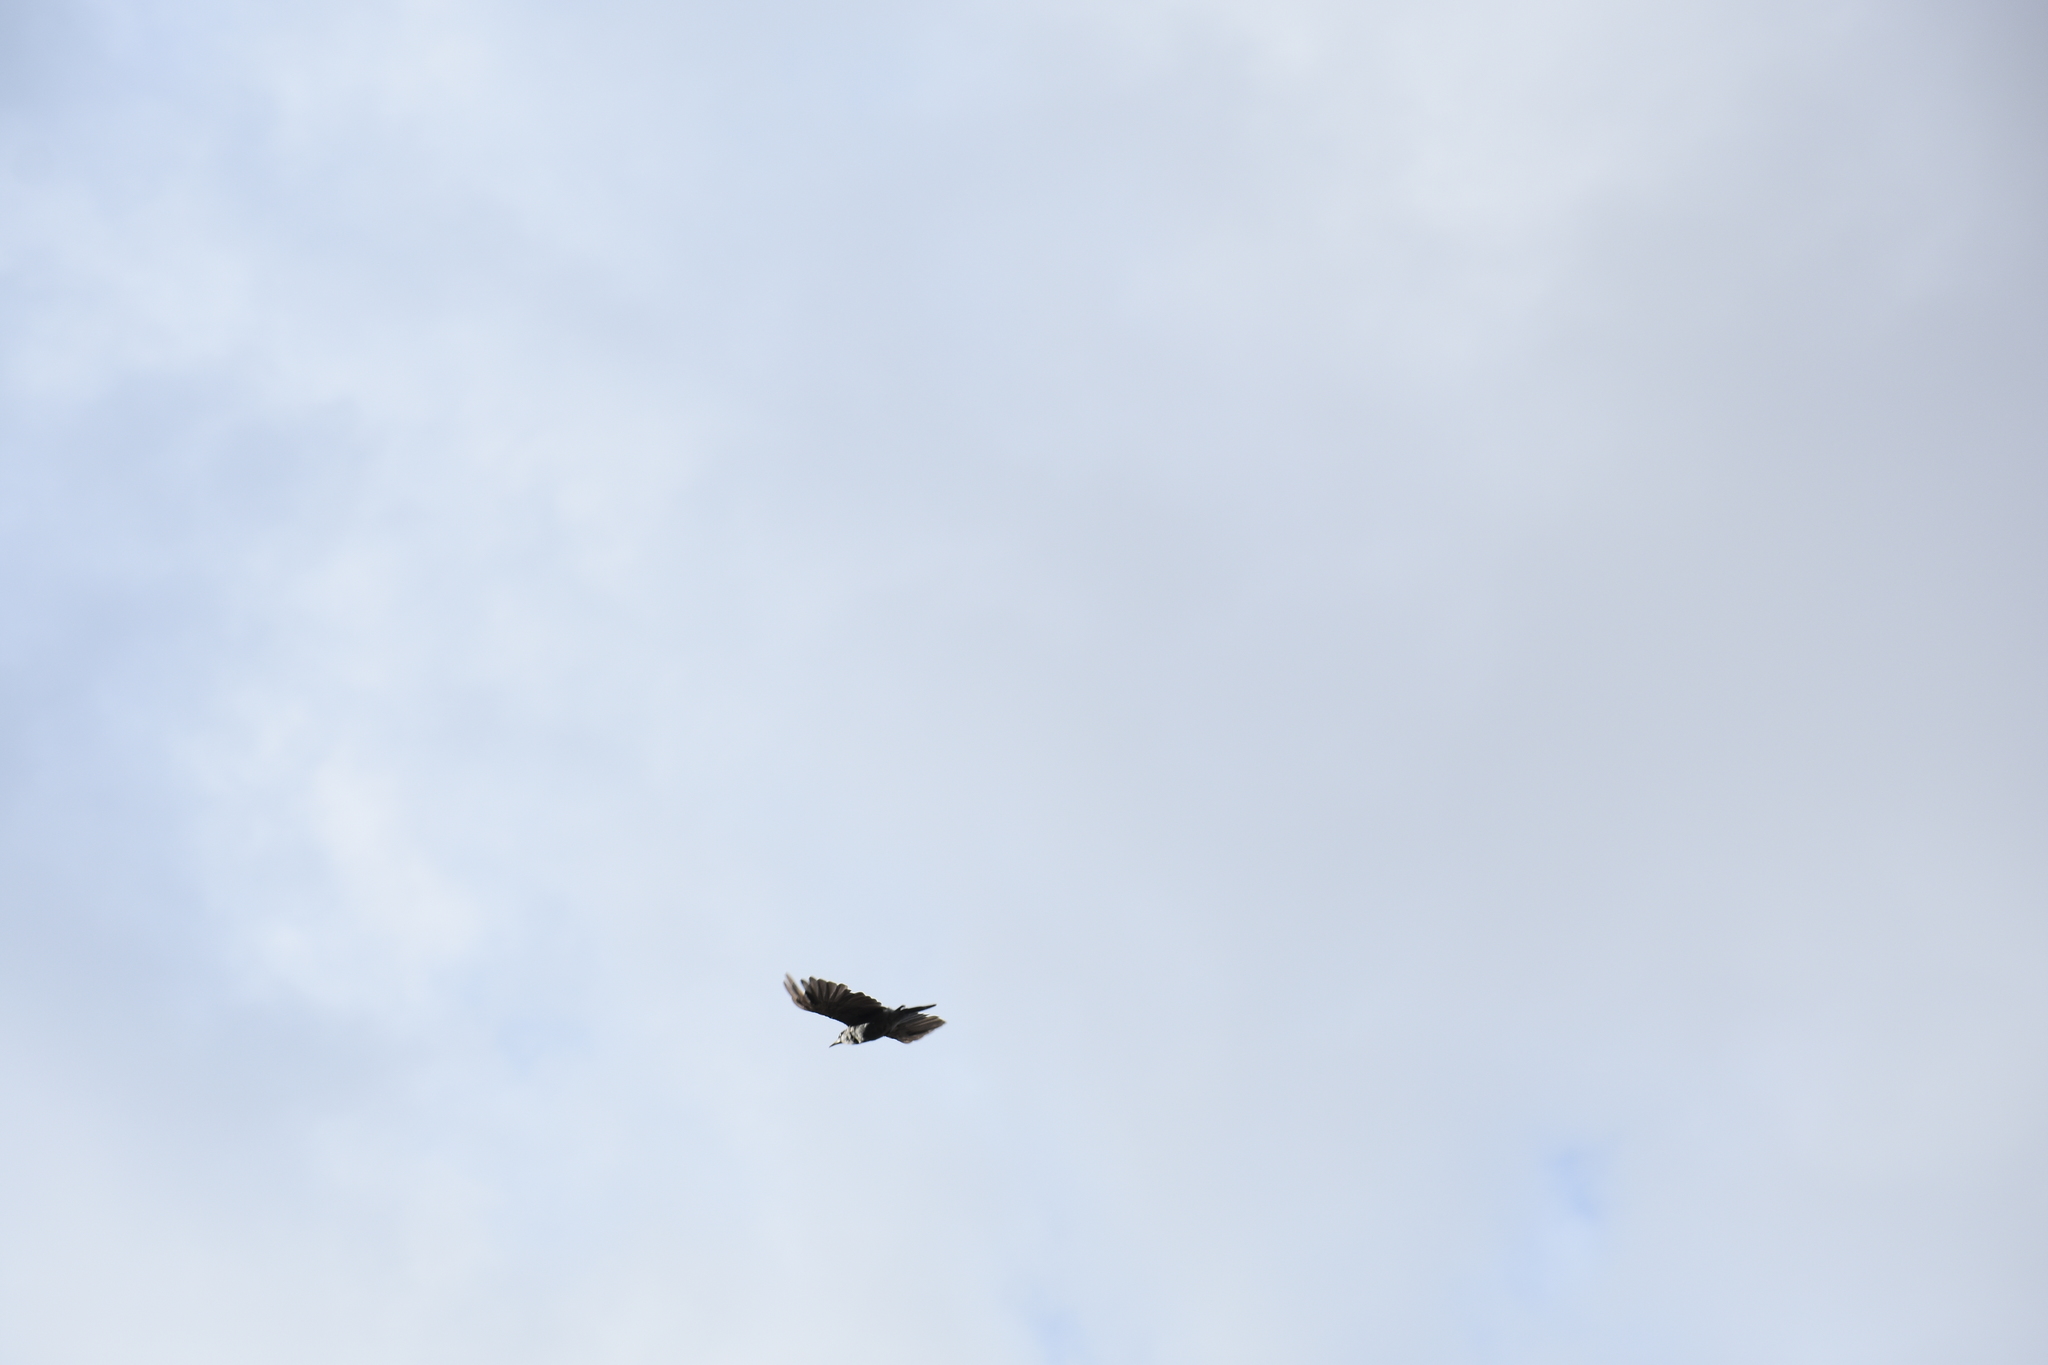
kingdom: Animalia
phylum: Chordata
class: Aves
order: Passeriformes
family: Corvidae
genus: Gymnorhinus
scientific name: Gymnorhinus cyanocephalus
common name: Pinyon jay
